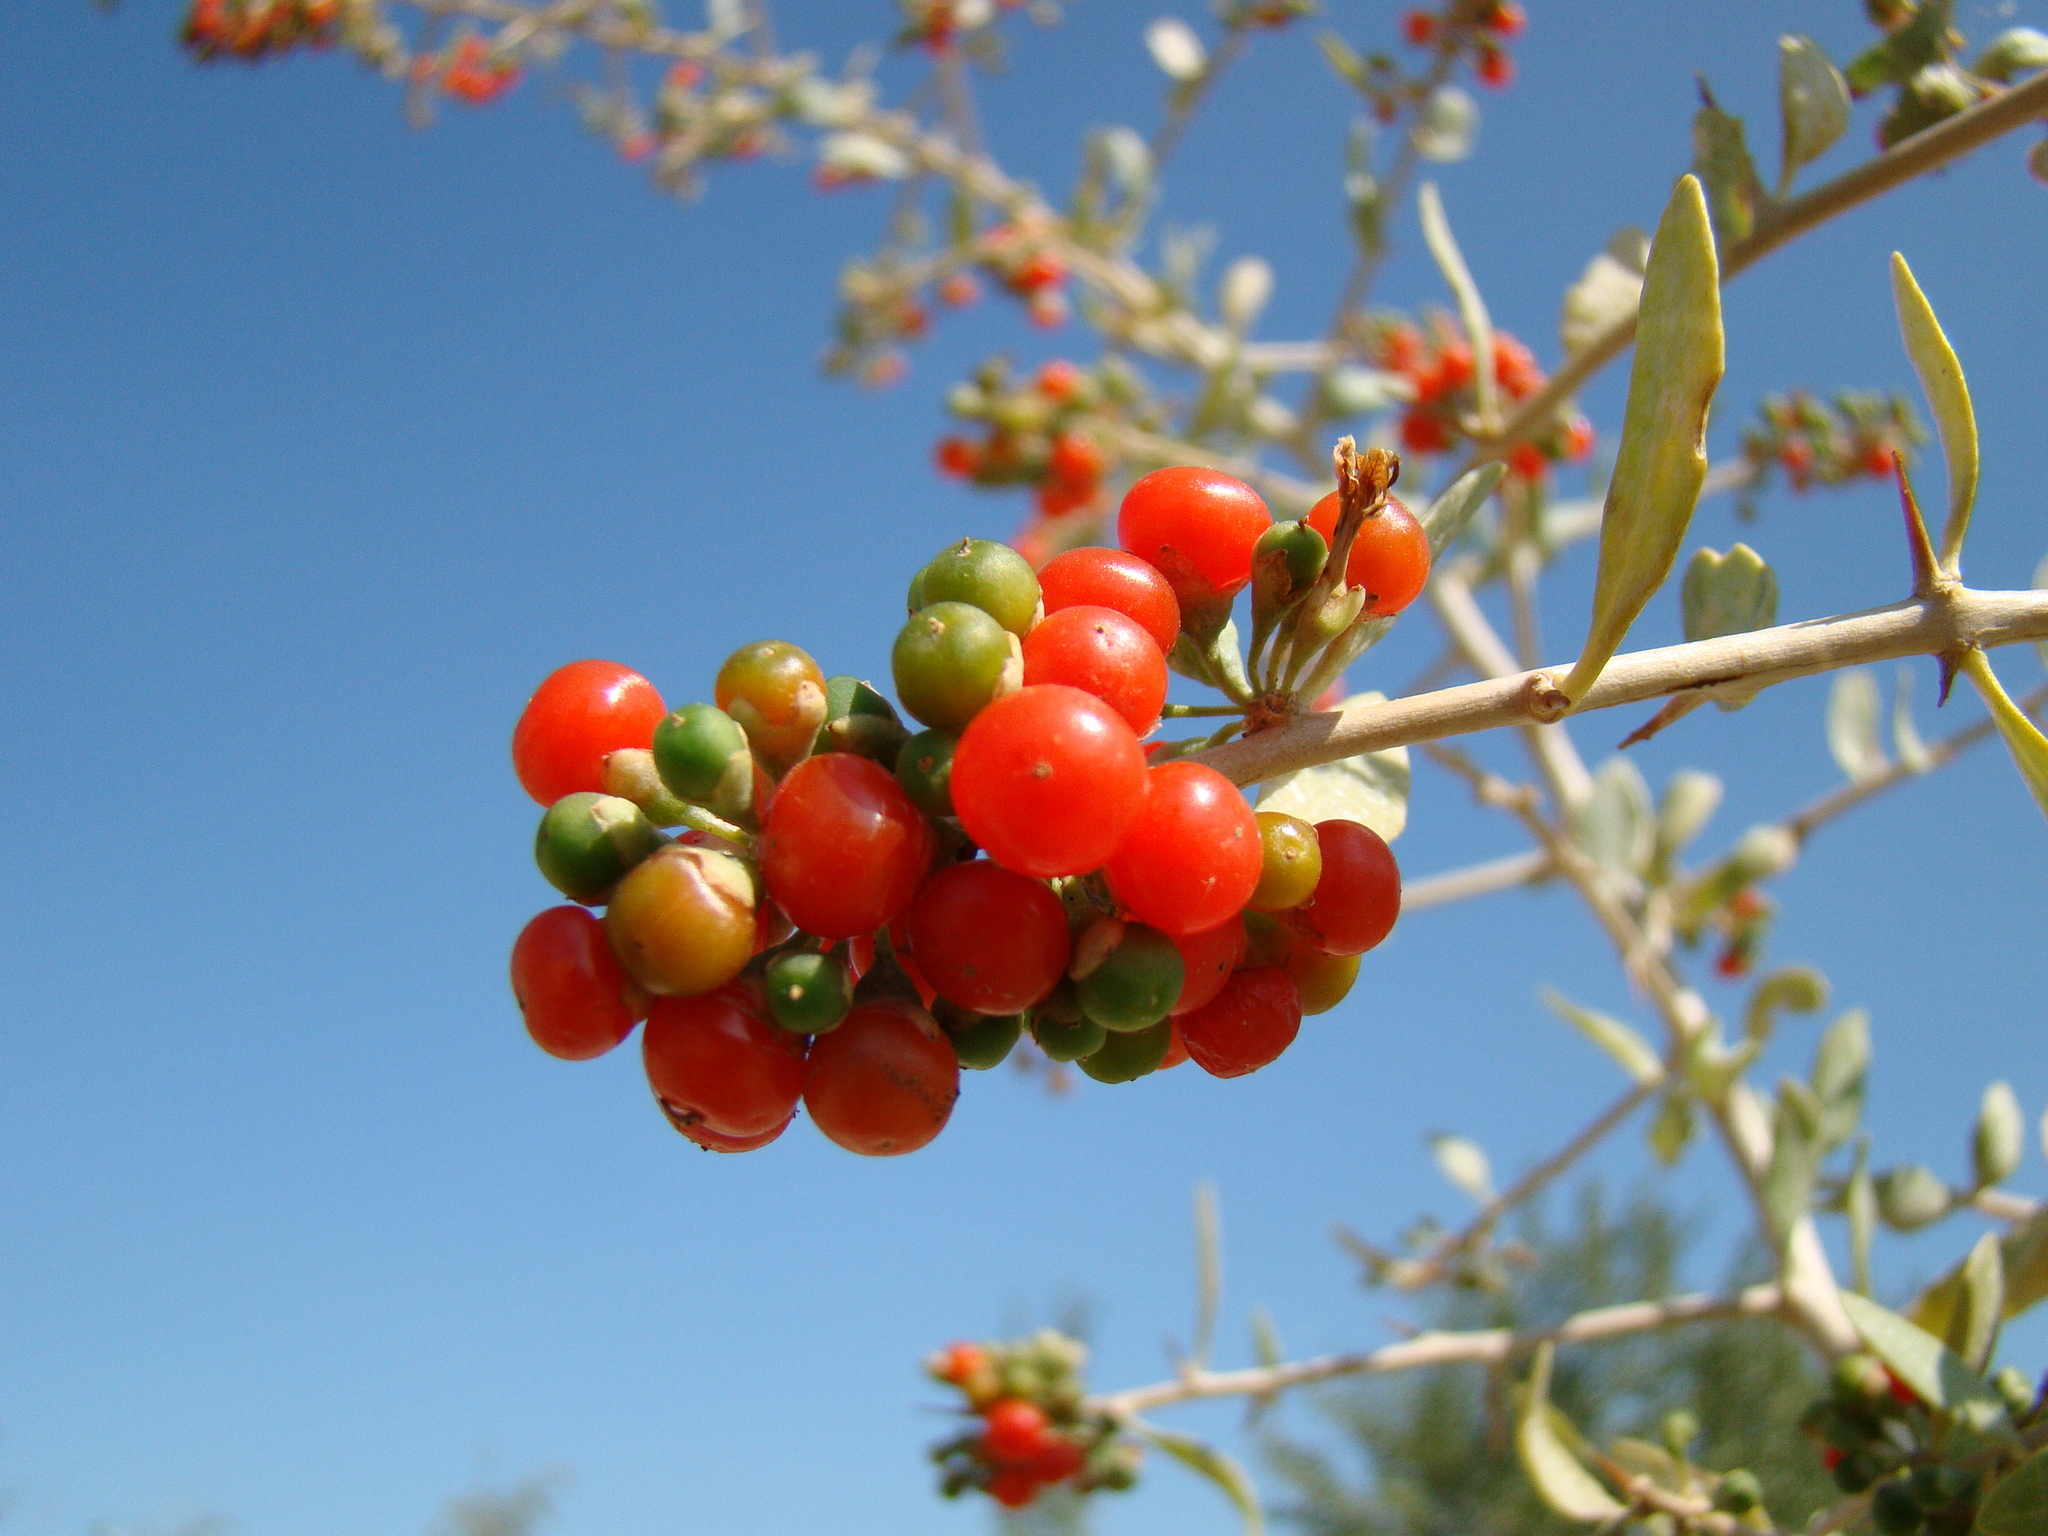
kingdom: Plantae
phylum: Tracheophyta
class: Magnoliopsida
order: Solanales
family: Solanaceae
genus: Lycium
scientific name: Lycium dasystemum
